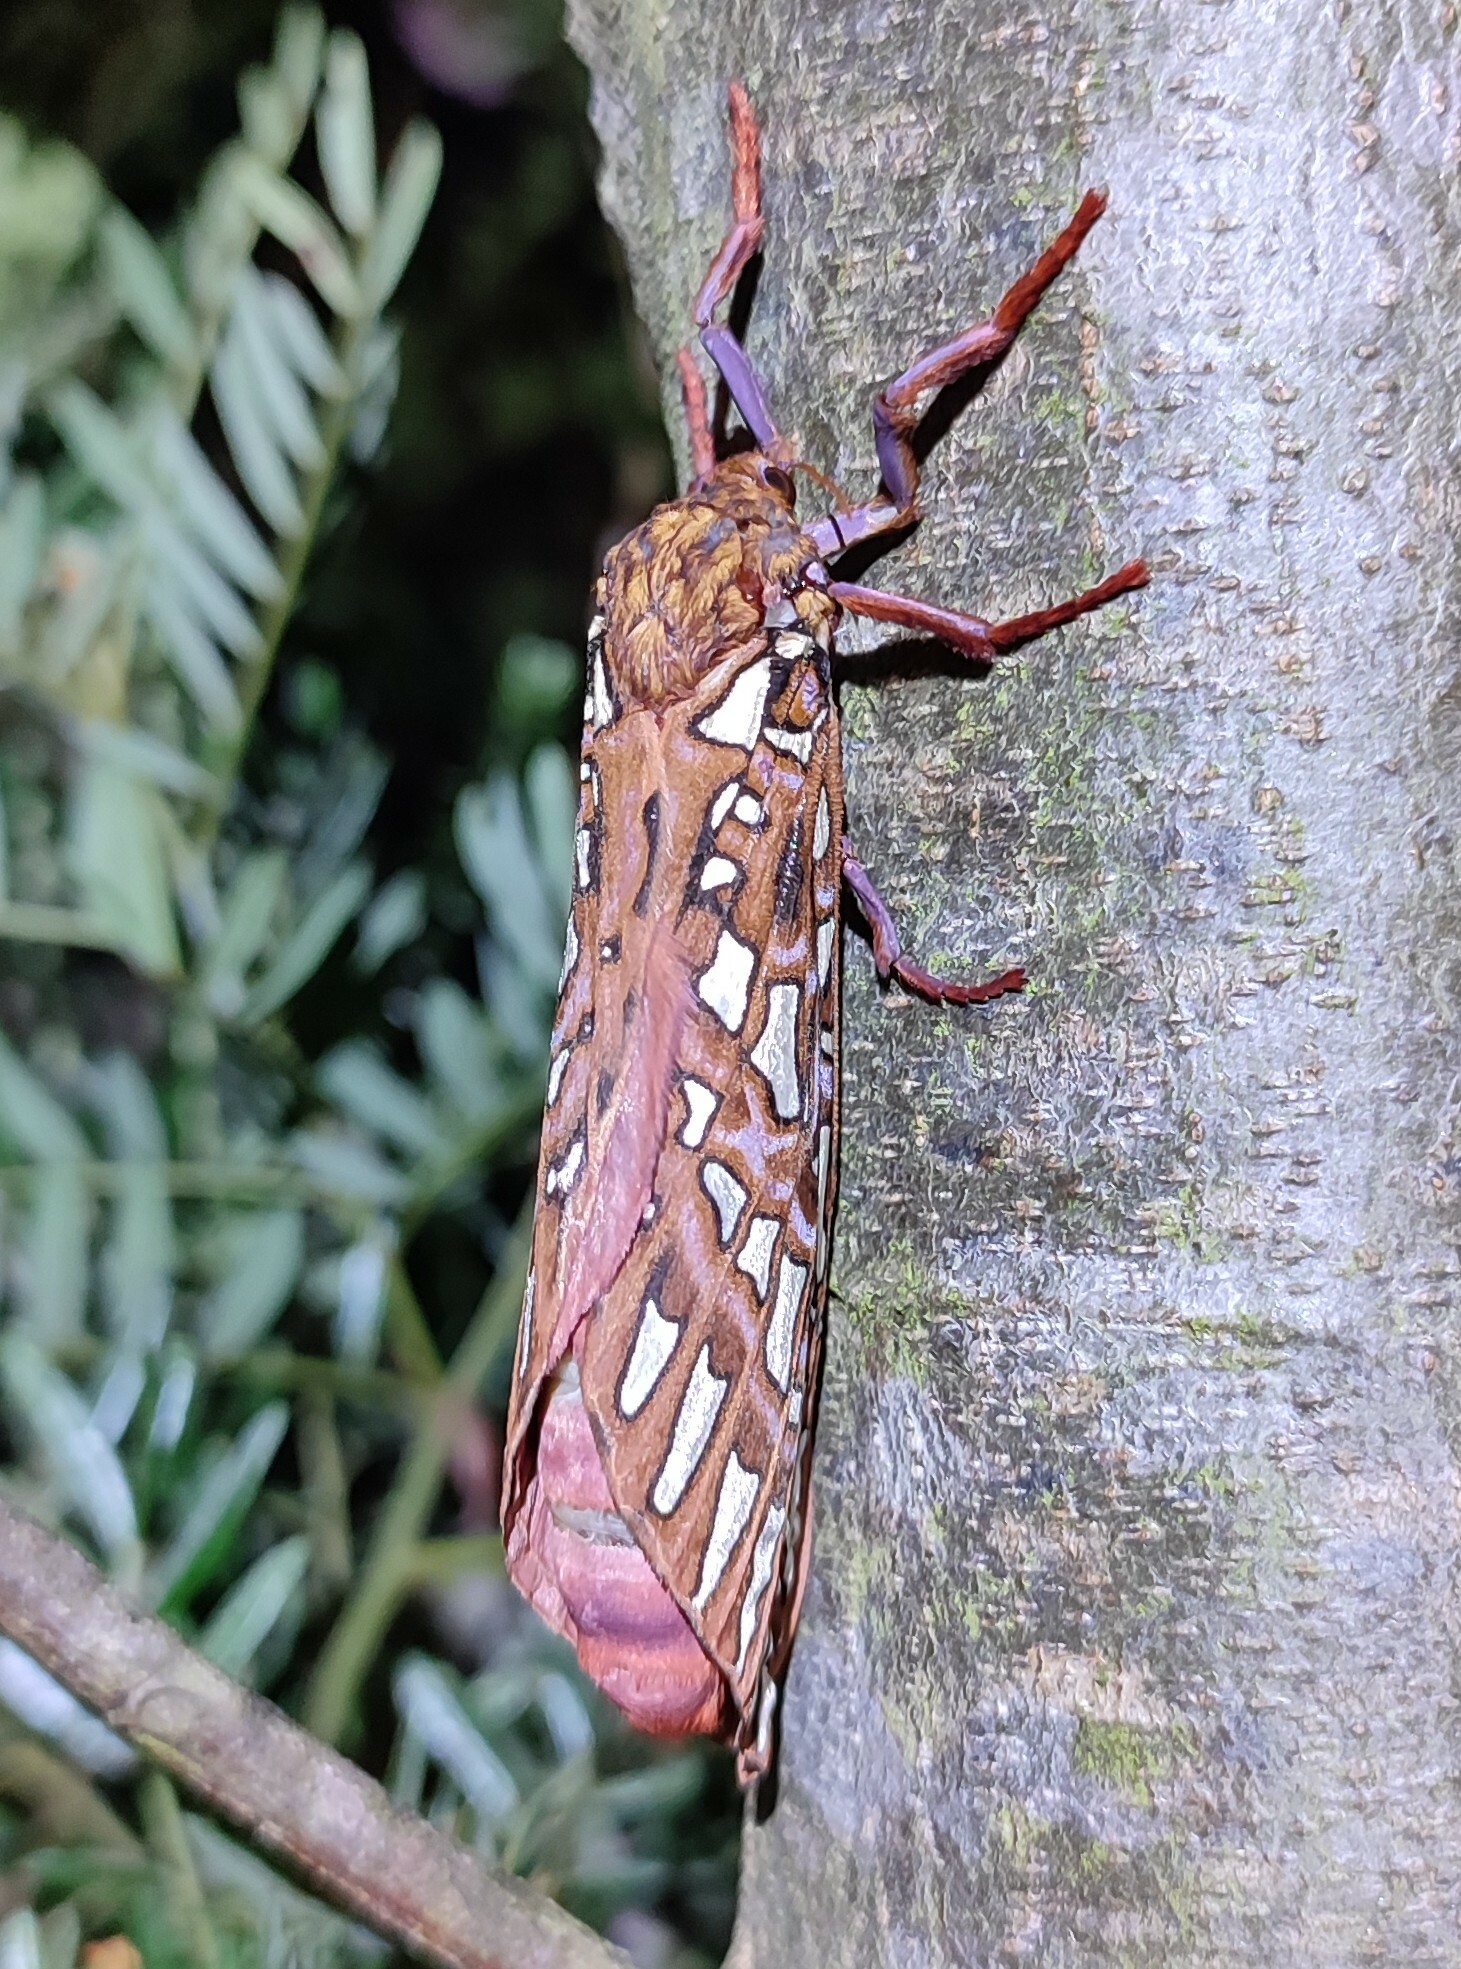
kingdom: Animalia
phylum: Arthropoda
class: Insecta
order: Lepidoptera
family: Hepialidae
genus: Leto
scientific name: Leto venus
